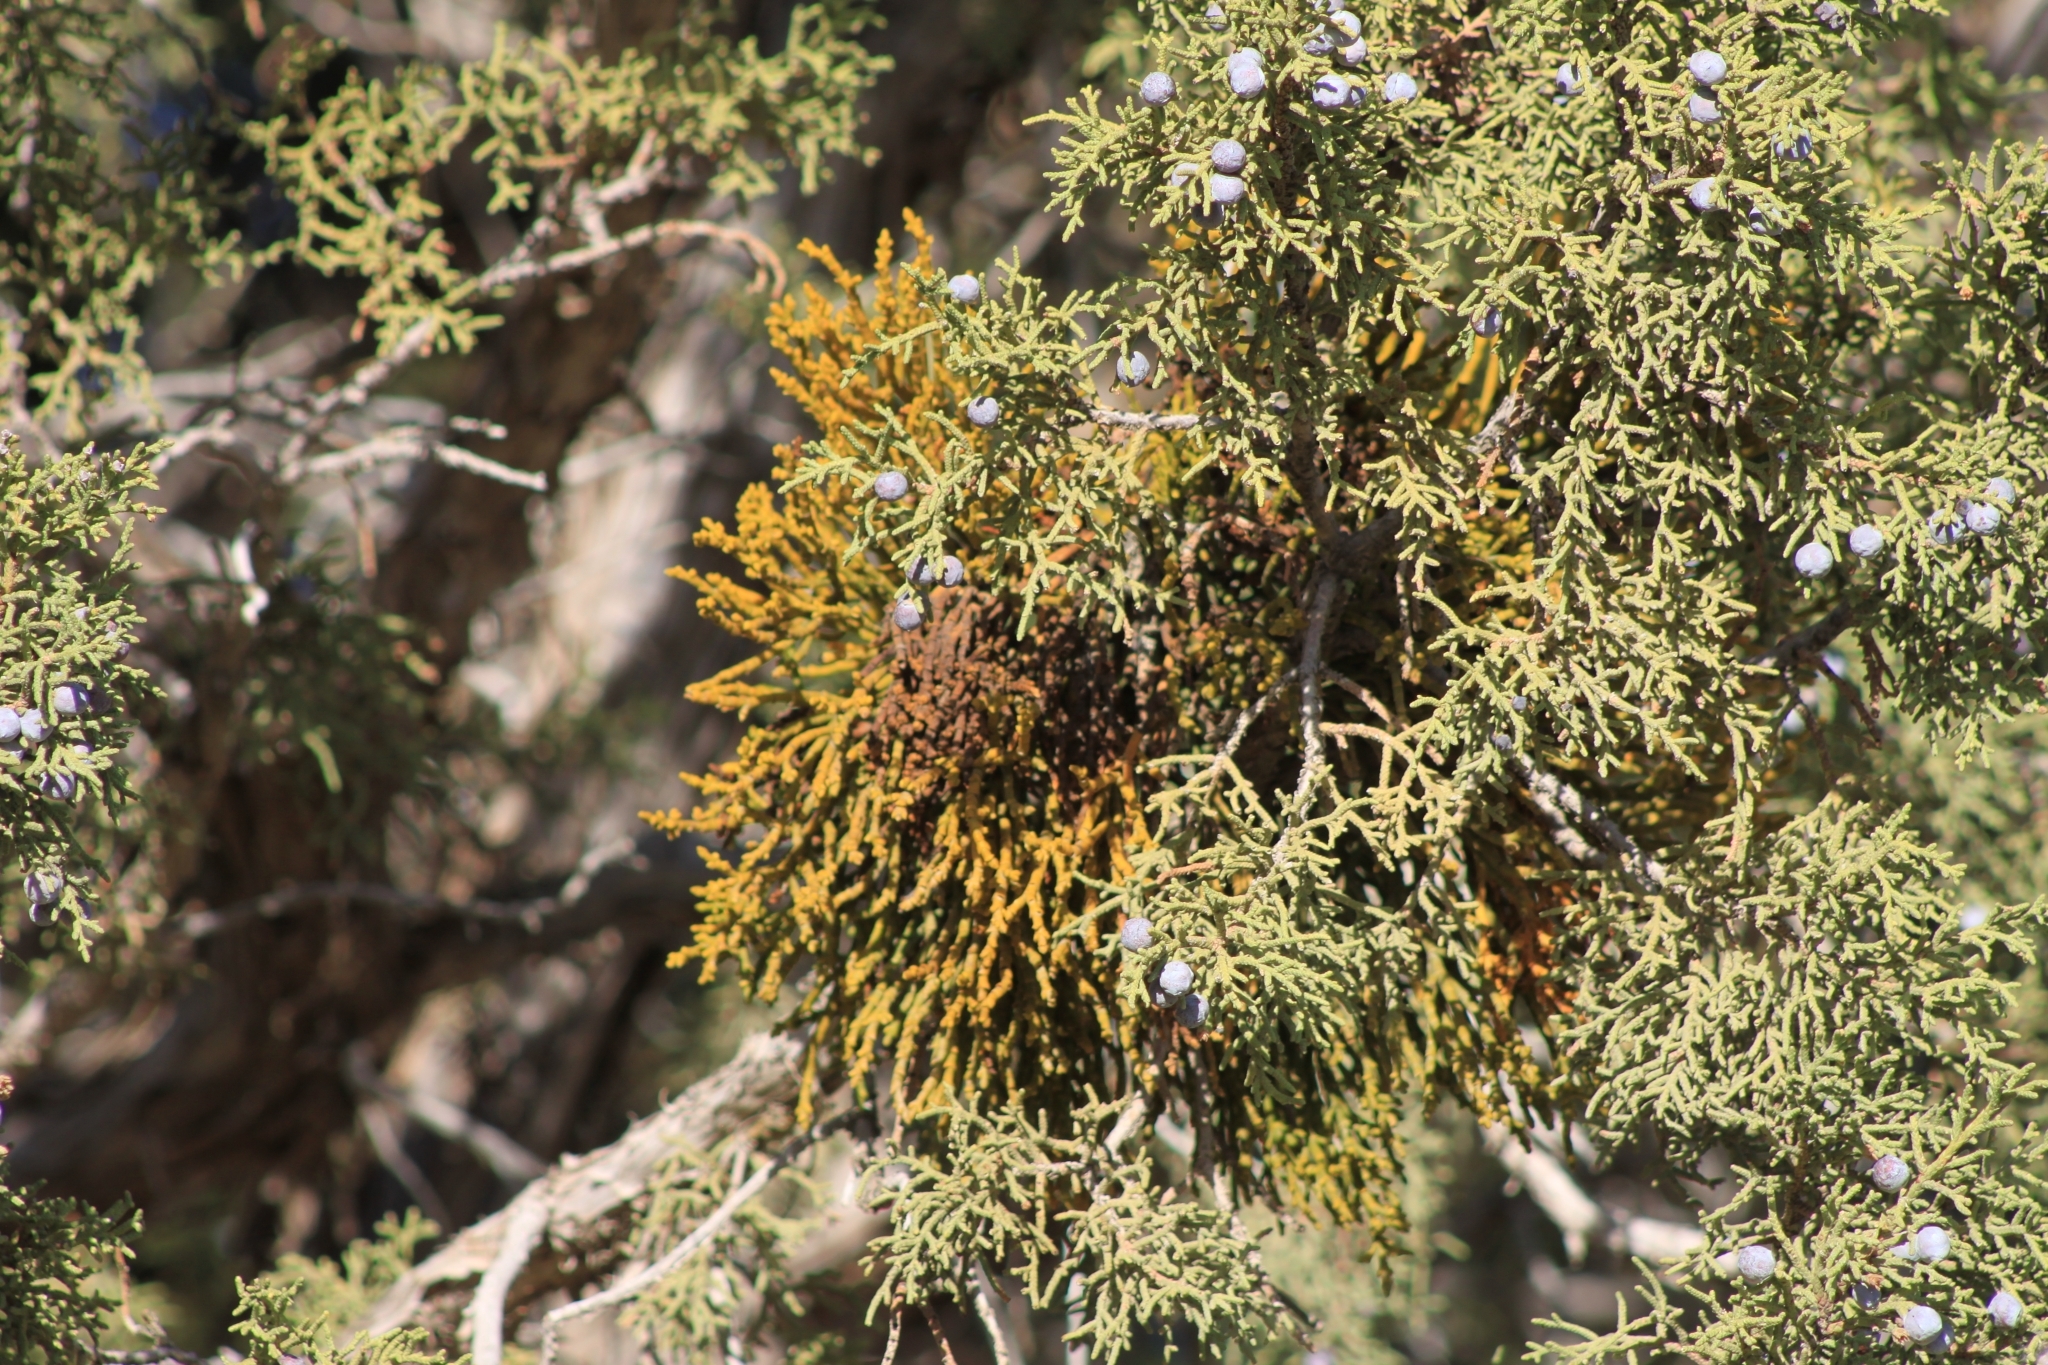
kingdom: Plantae
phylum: Tracheophyta
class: Magnoliopsida
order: Santalales
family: Viscaceae
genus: Phoradendron
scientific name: Phoradendron juniperinum
